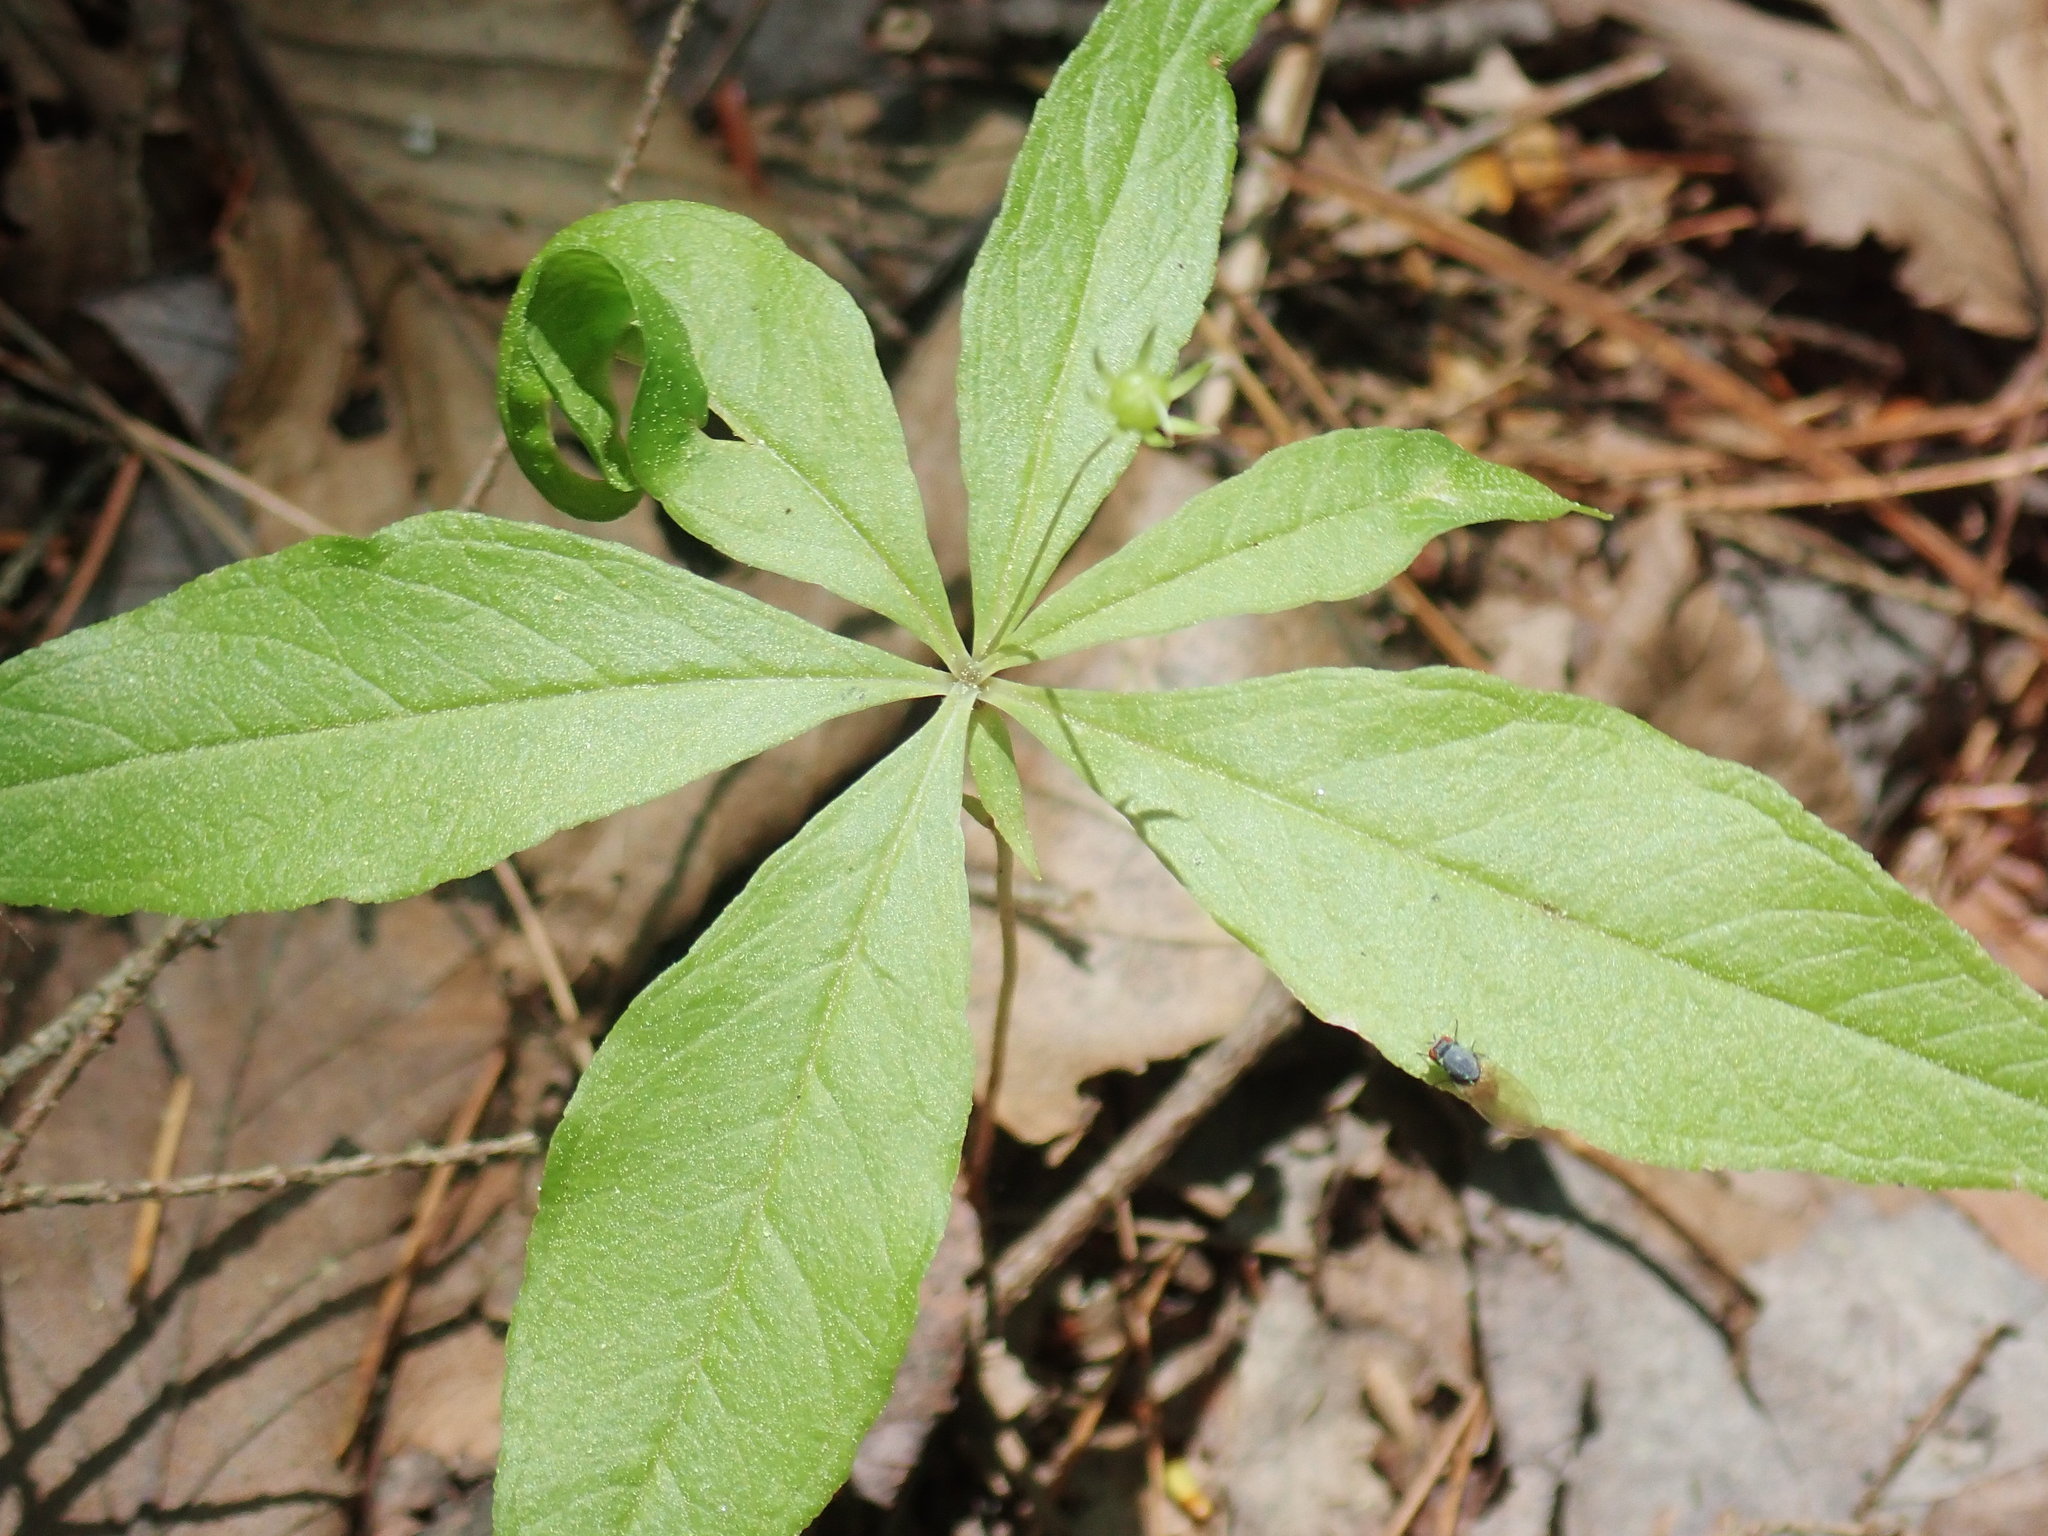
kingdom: Plantae
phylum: Tracheophyta
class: Magnoliopsida
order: Ericales
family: Primulaceae
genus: Lysimachia
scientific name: Lysimachia borealis
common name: American starflower
